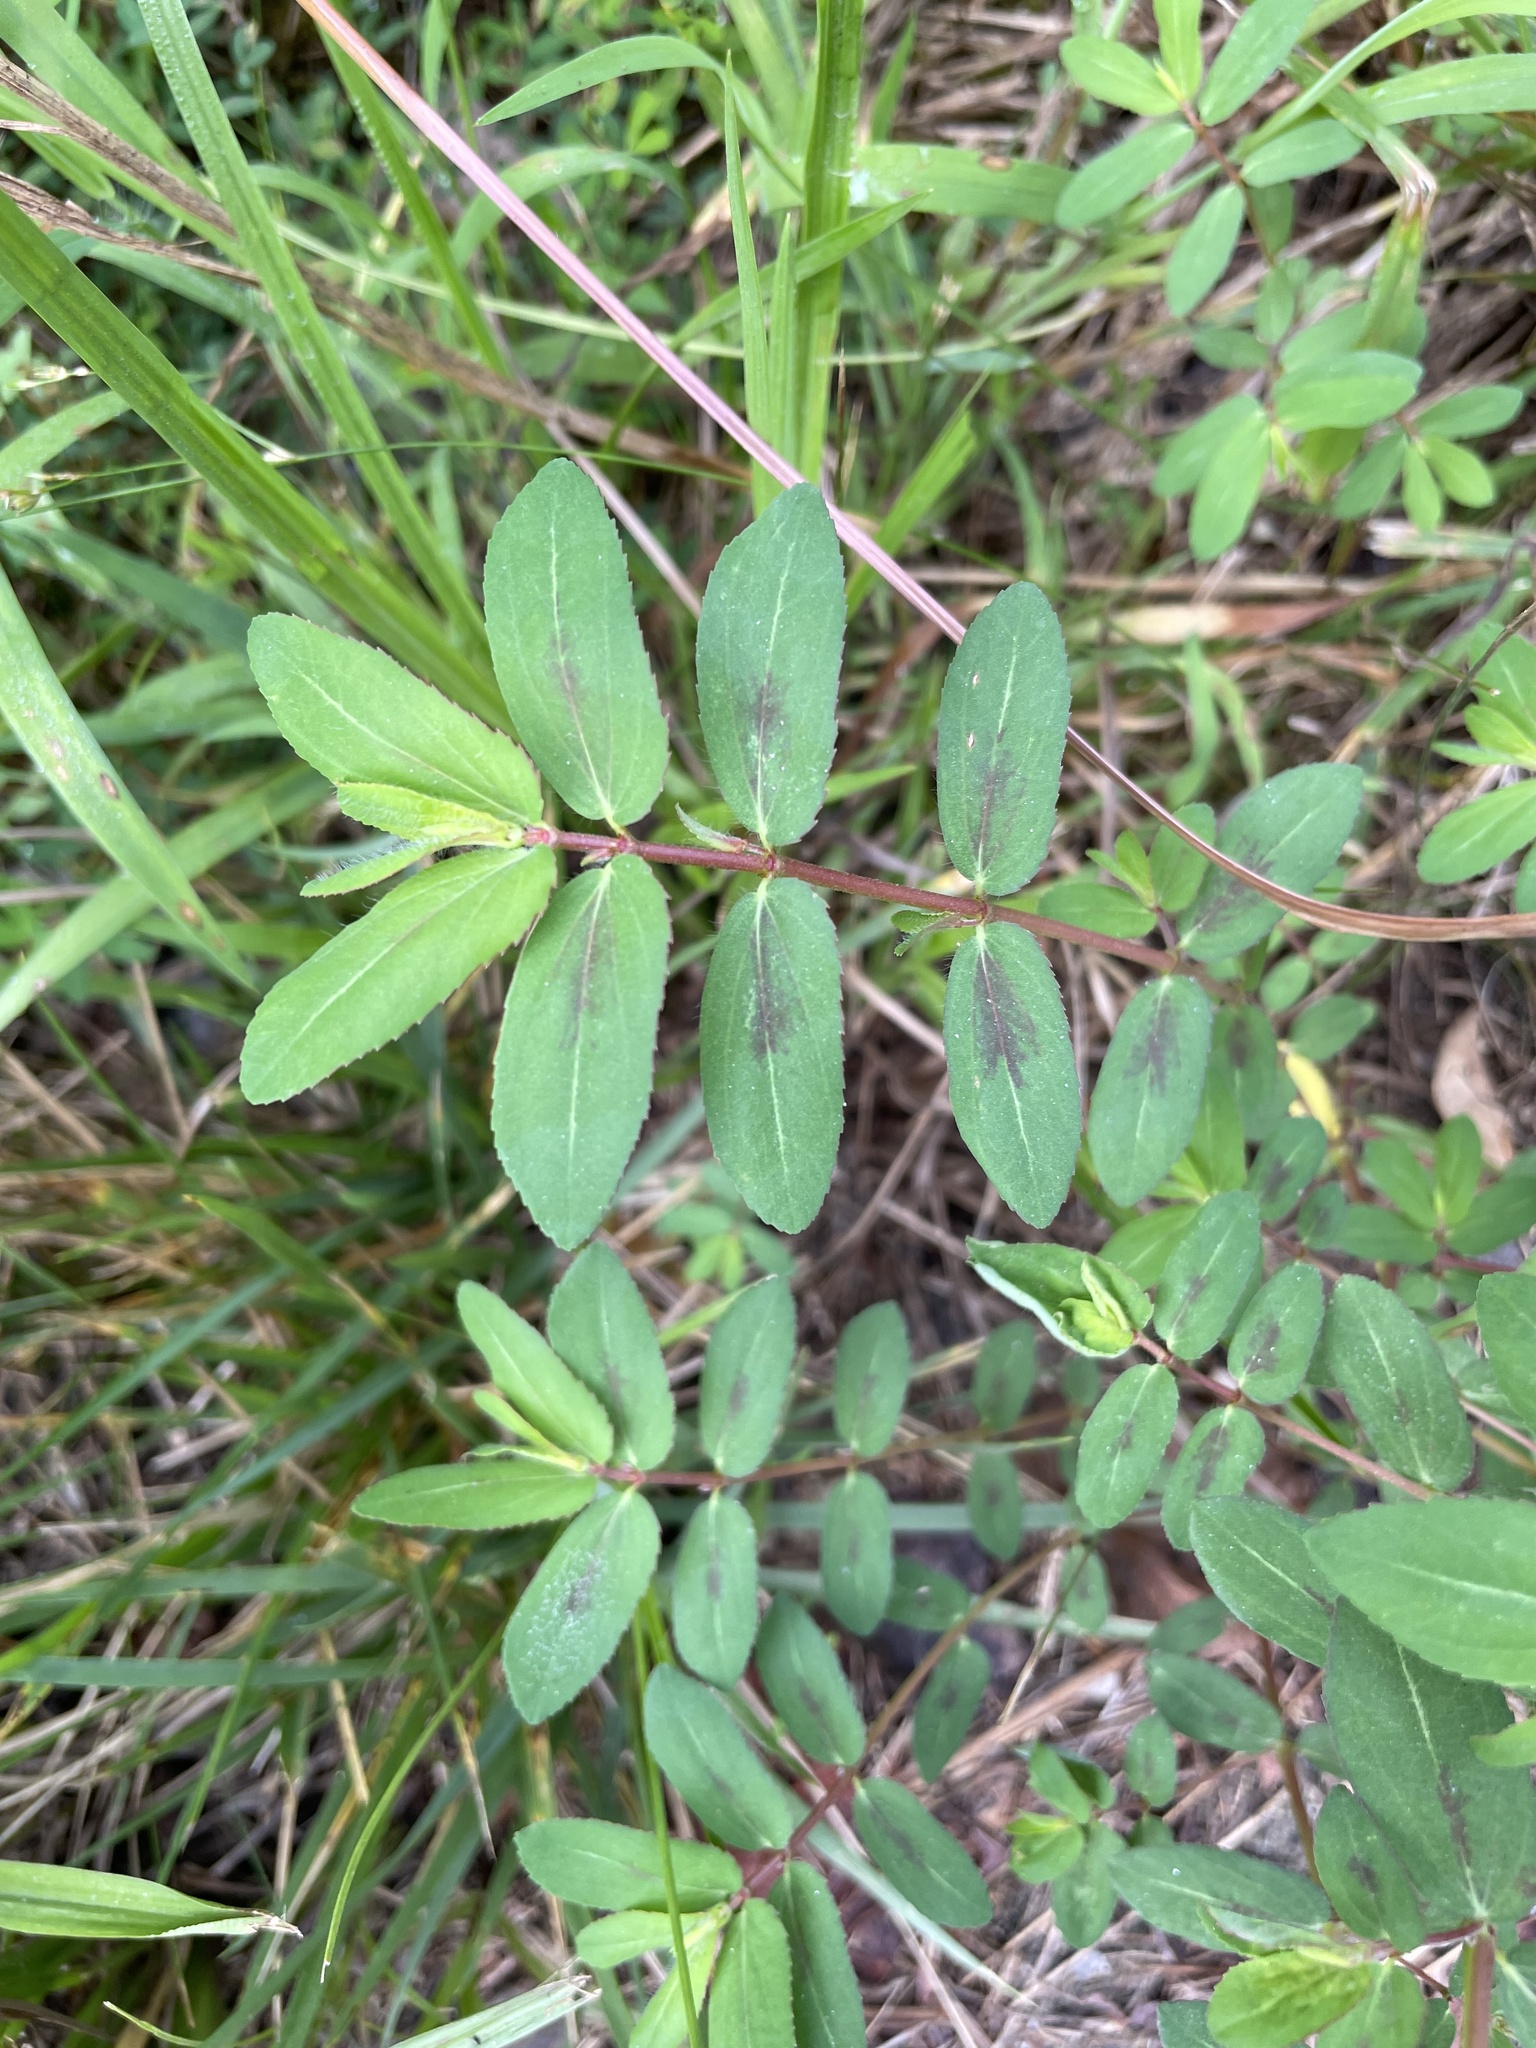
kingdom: Plantae
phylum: Tracheophyta
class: Magnoliopsida
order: Malpighiales
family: Euphorbiaceae
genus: Euphorbia
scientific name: Euphorbia nutans
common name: Eyebane
